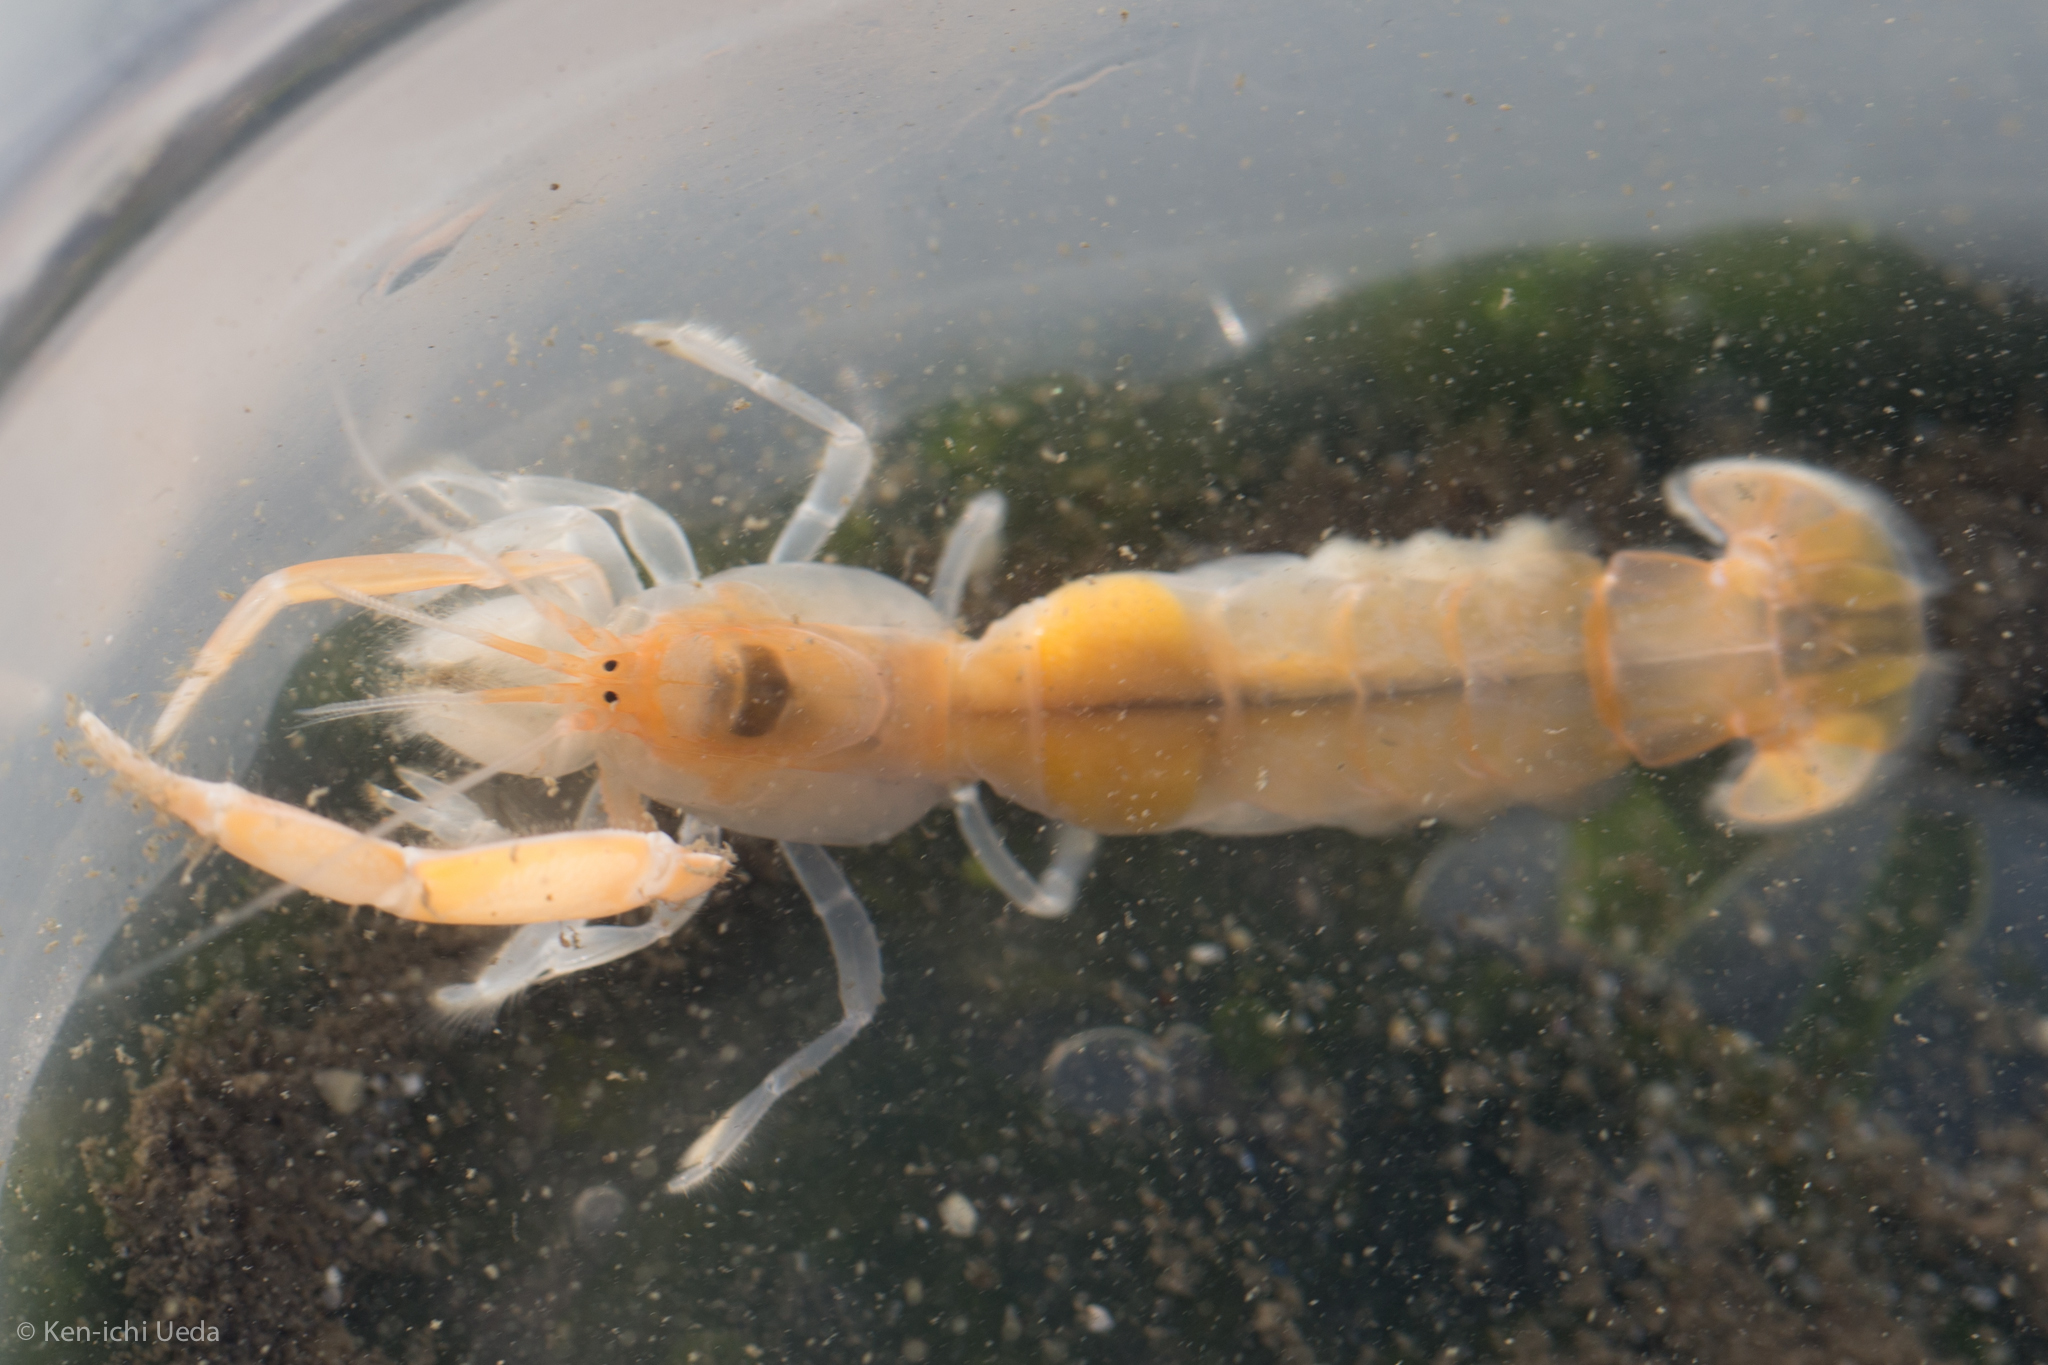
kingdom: Animalia
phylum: Arthropoda
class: Malacostraca
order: Decapoda
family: Callianassidae
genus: Neotrypaea
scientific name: Neotrypaea californiensis
